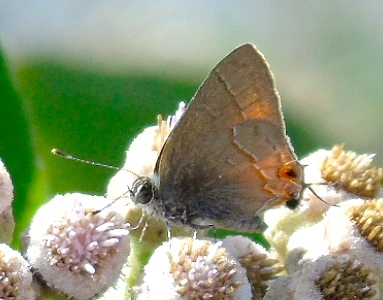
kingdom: Animalia
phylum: Arthropoda
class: Insecta
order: Lepidoptera
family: Lycaenidae
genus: Rubroserrata
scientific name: Rubroserrata mathewi
